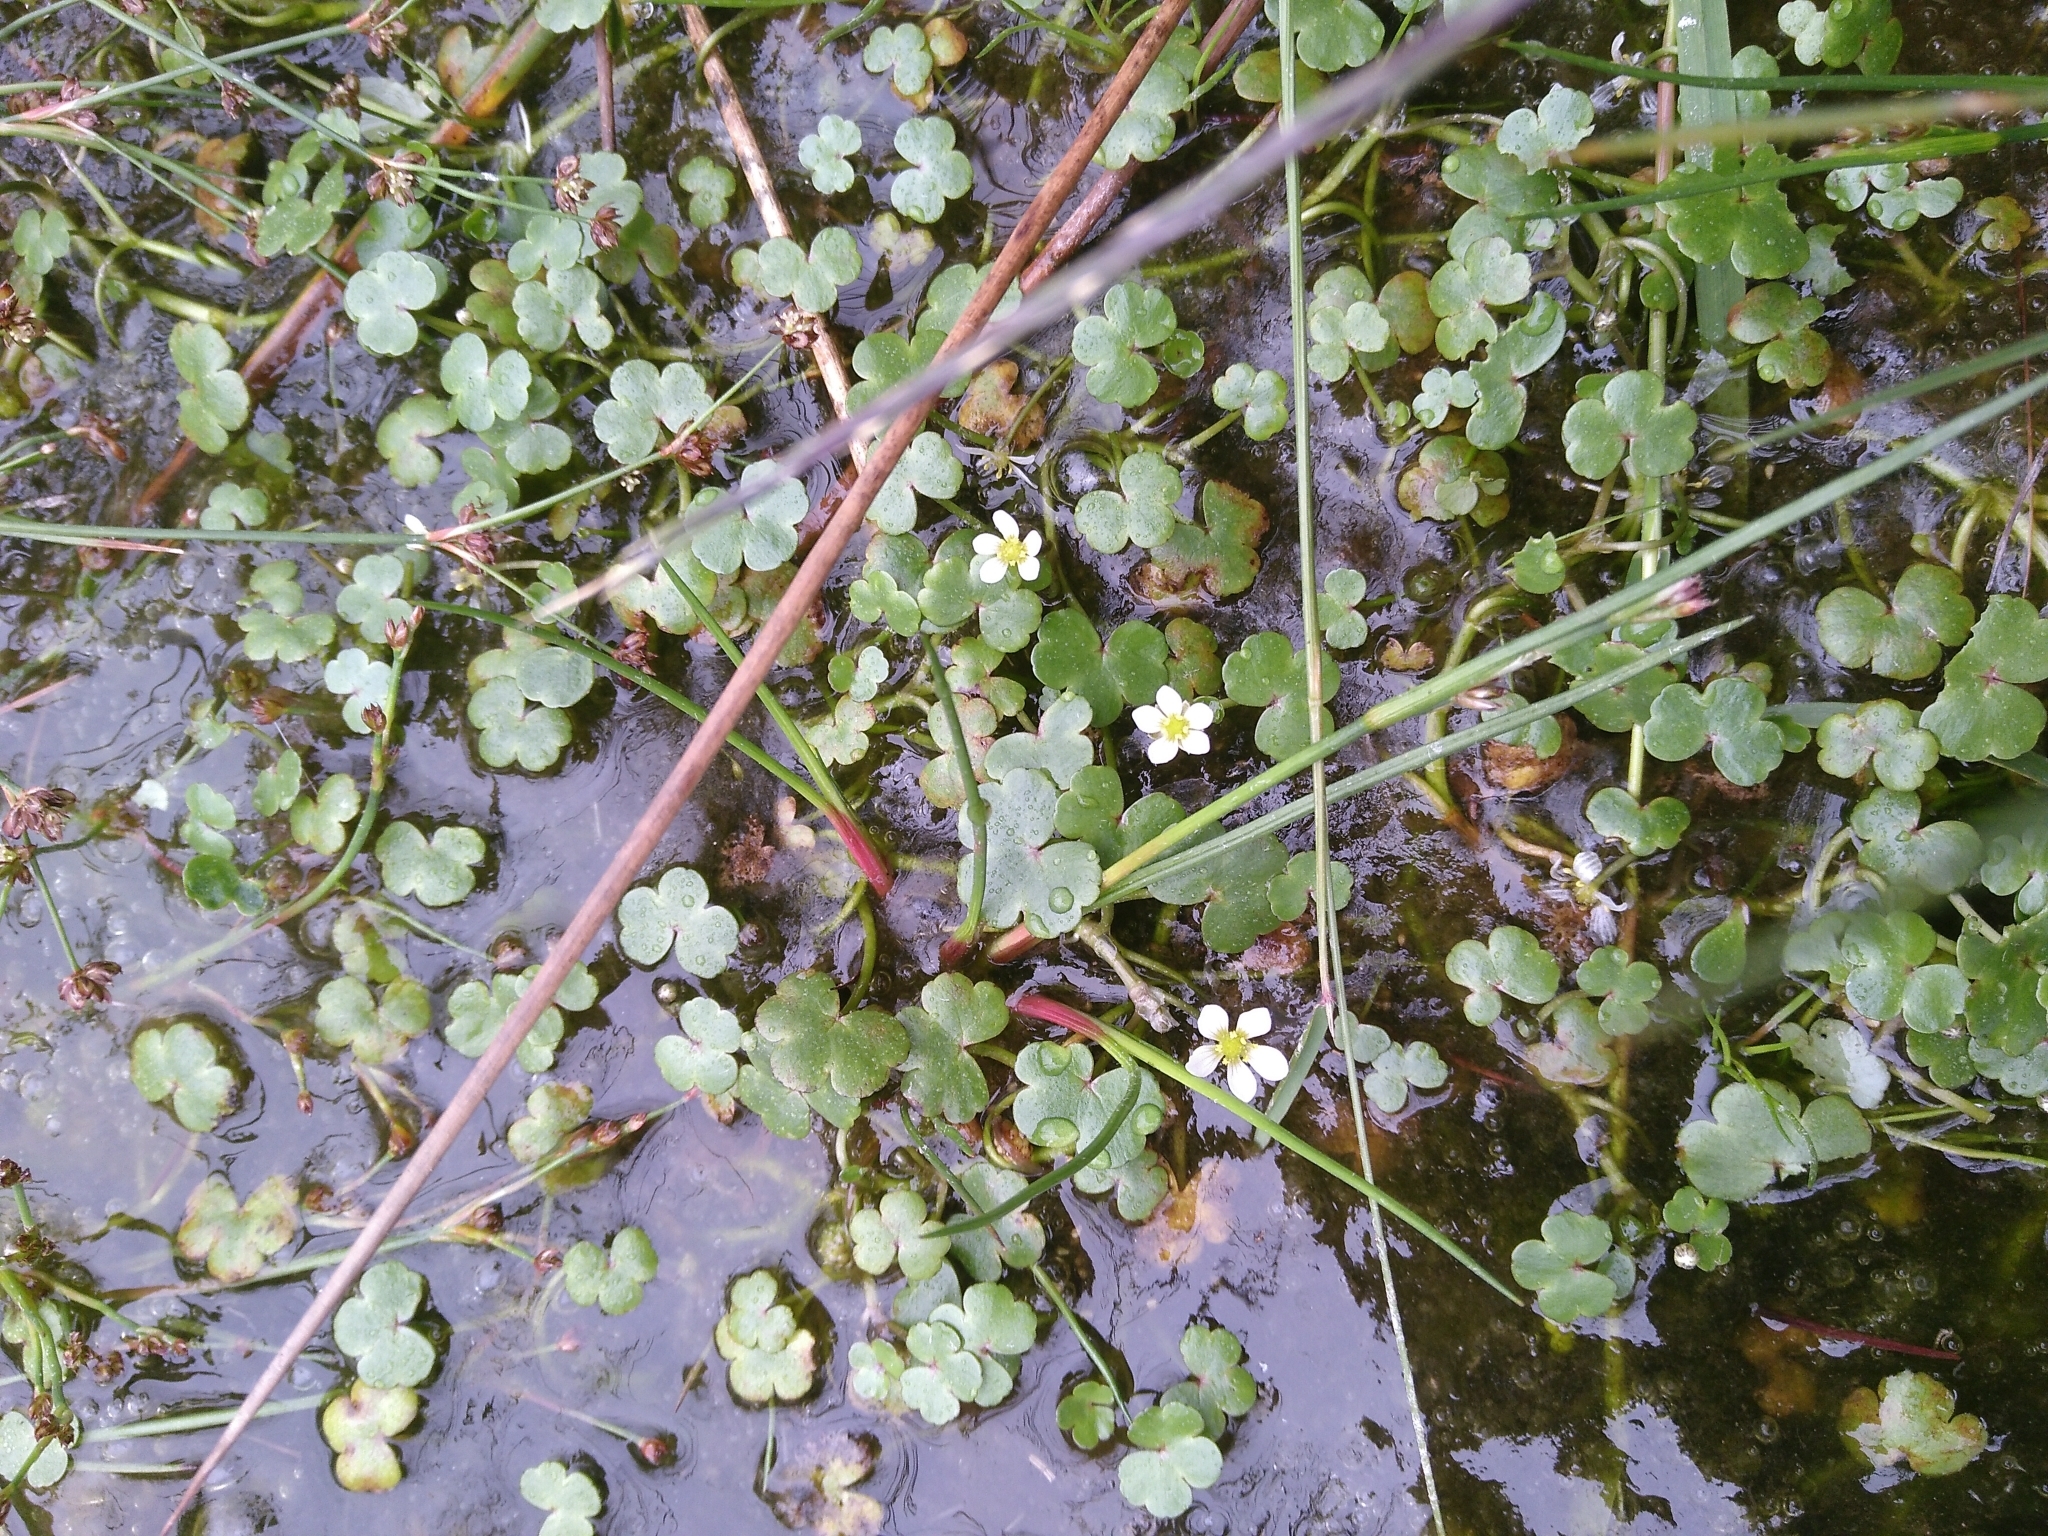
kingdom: Plantae
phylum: Tracheophyta
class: Magnoliopsida
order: Ranunculales
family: Ranunculaceae
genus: Ranunculus
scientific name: Ranunculus omiophyllus
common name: Round-leaved crowfoot
